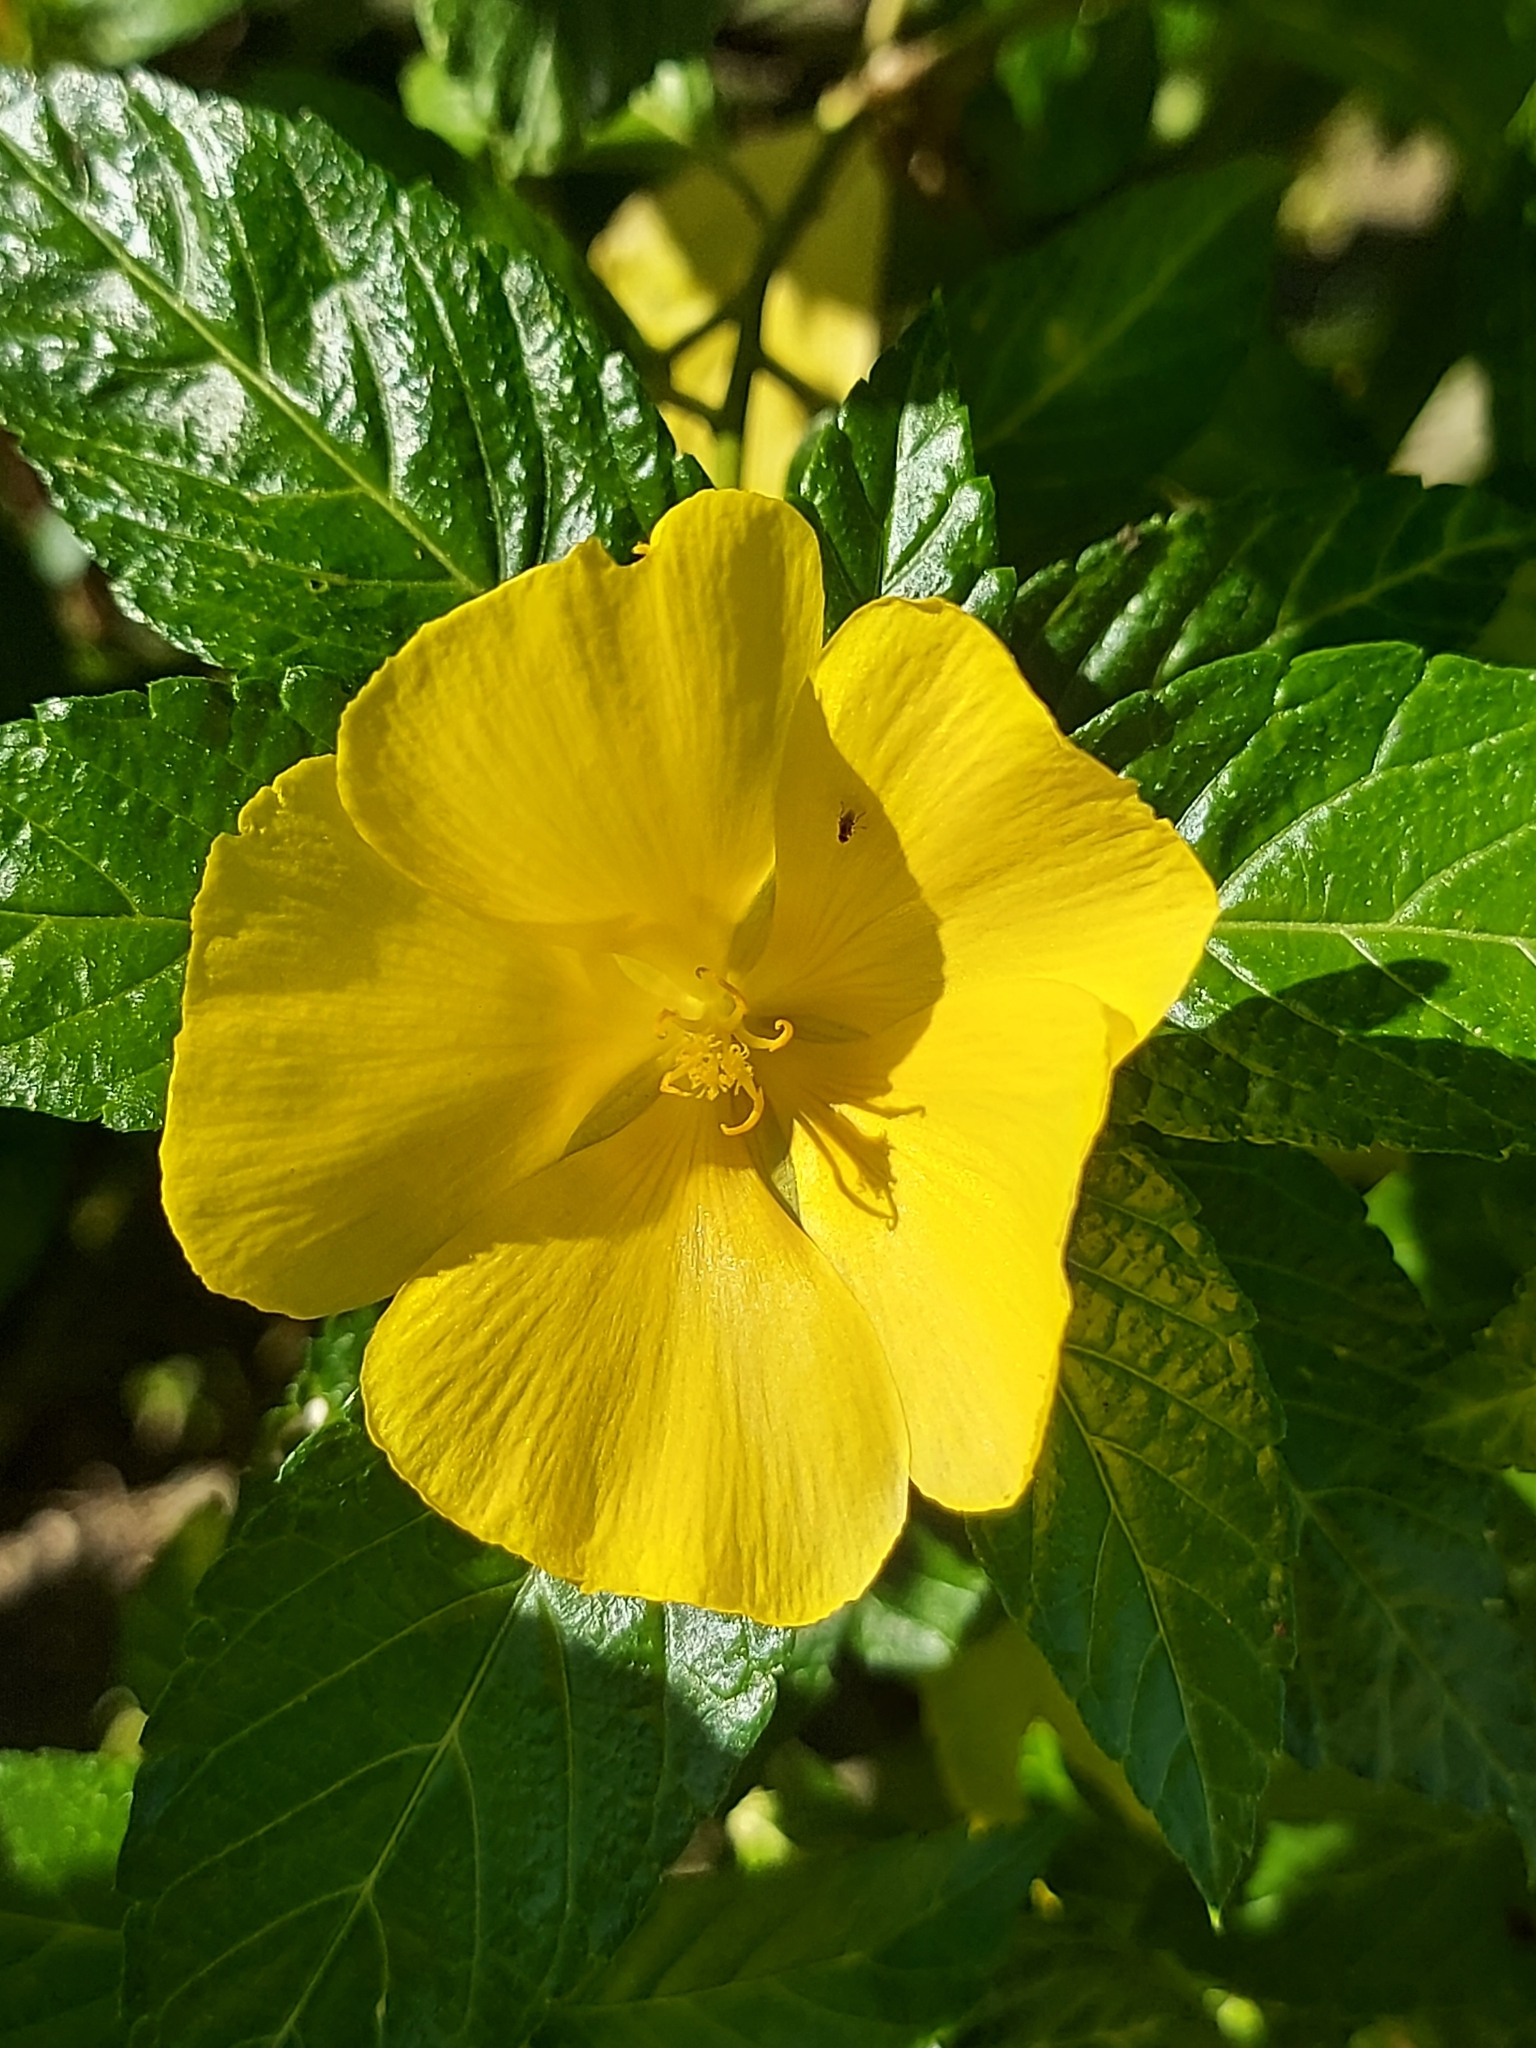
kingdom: Plantae
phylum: Tracheophyta
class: Magnoliopsida
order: Malpighiales
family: Turneraceae
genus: Turnera
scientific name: Turnera ulmifolia
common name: Ramgoat dashalong
